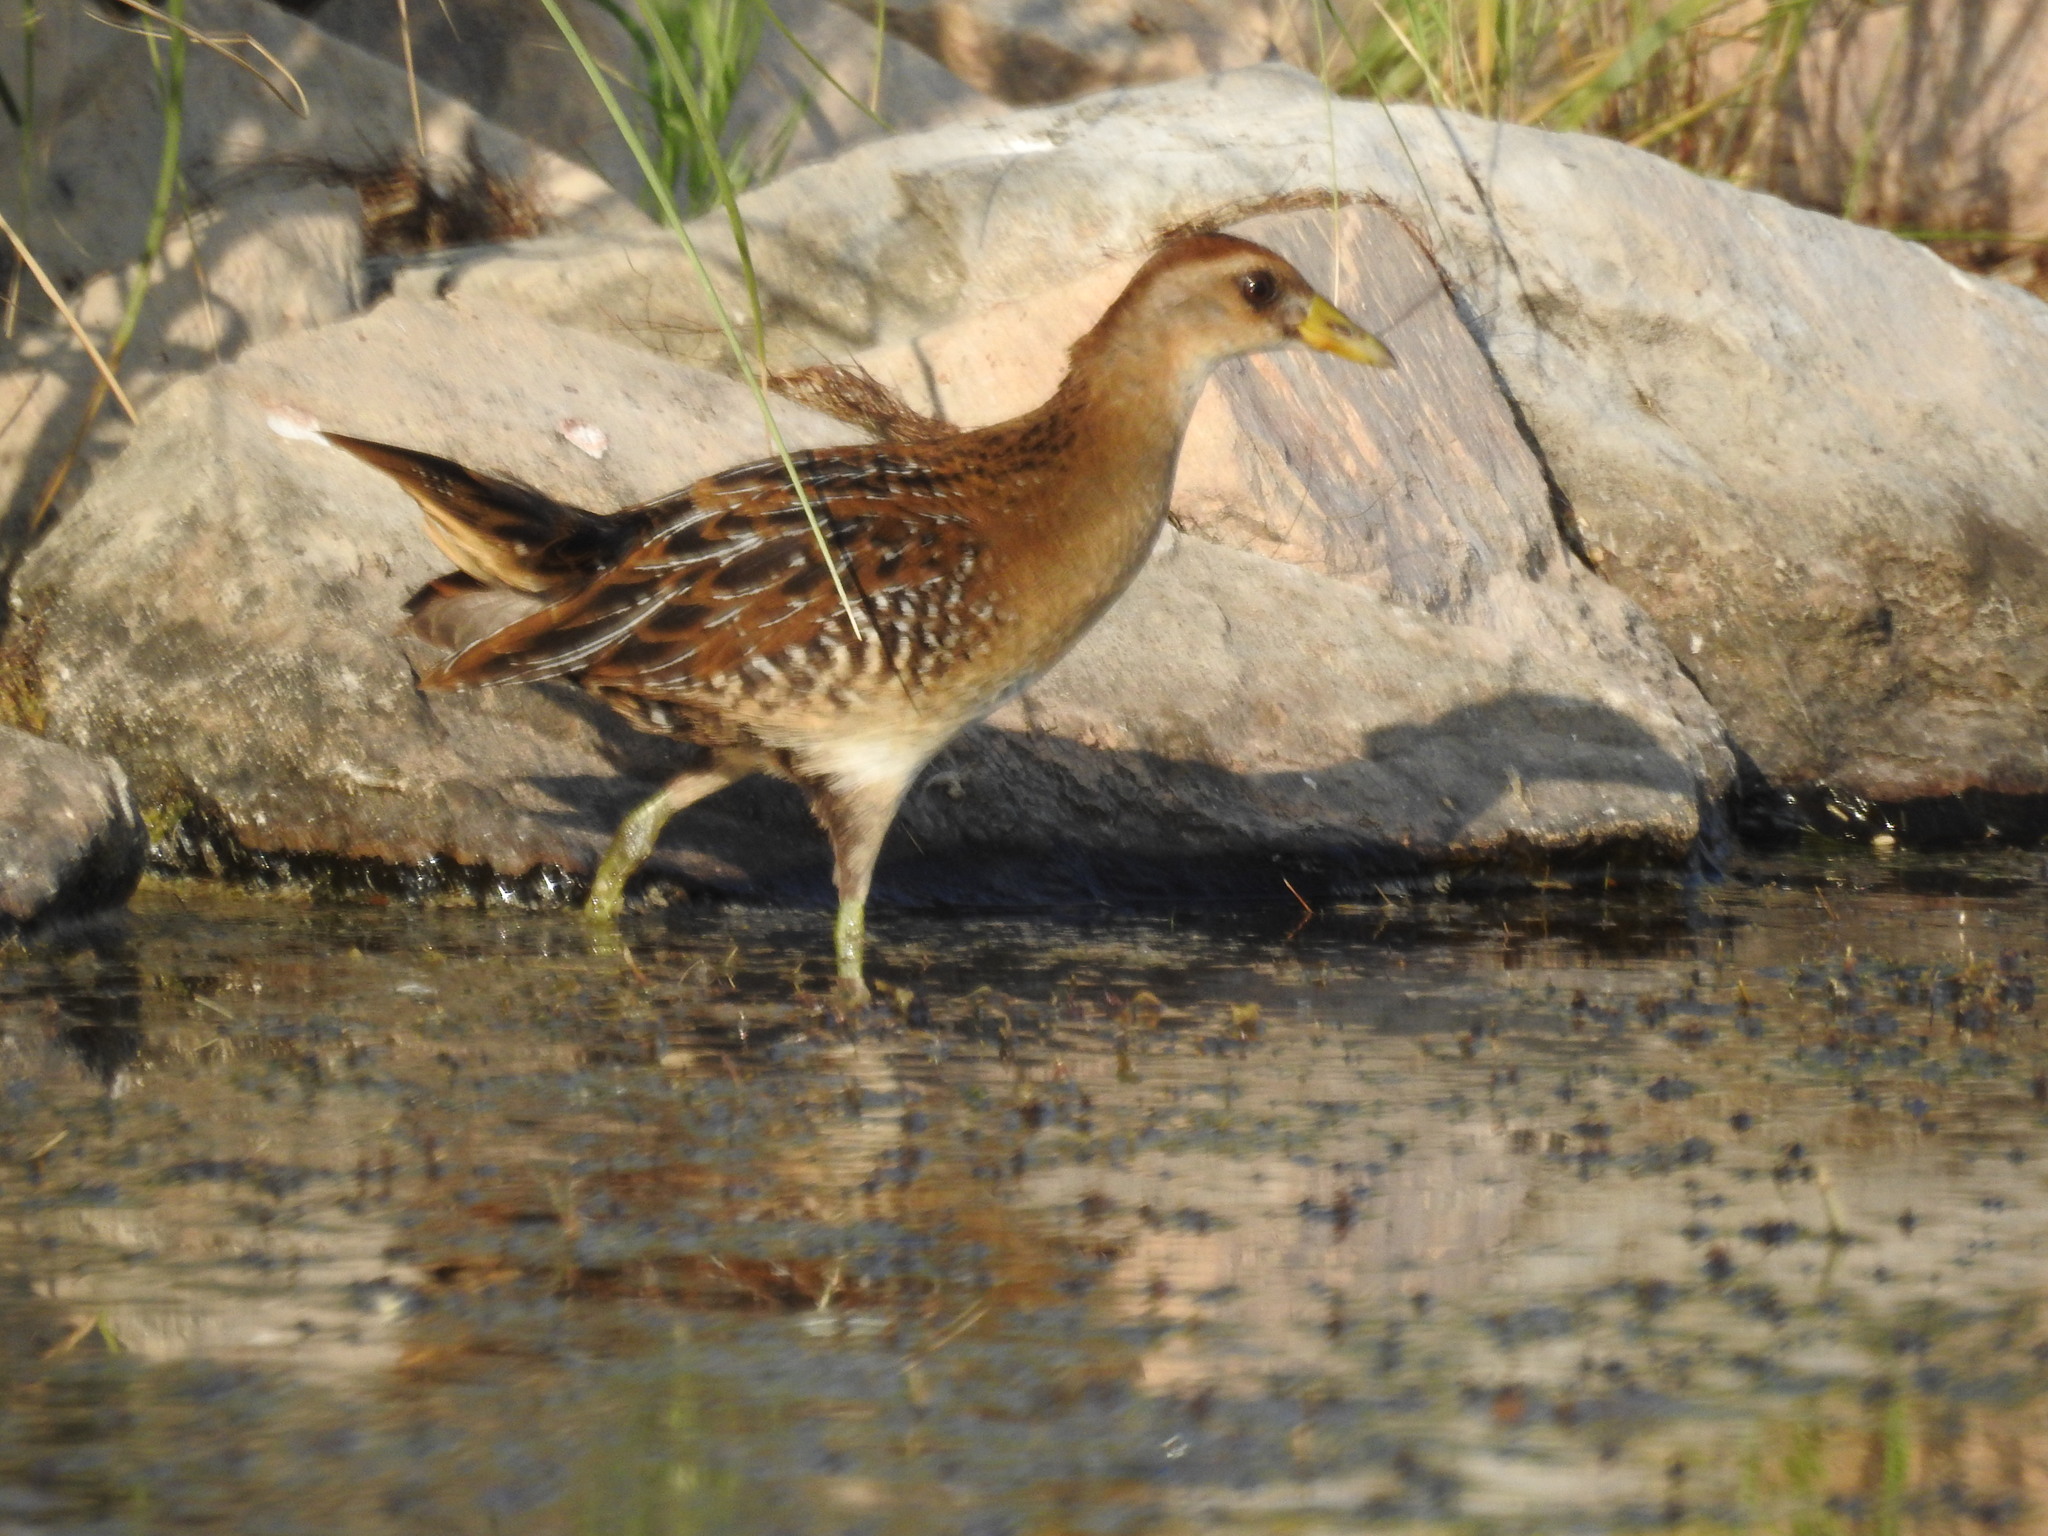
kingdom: Animalia
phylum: Chordata
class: Aves
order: Gruiformes
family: Rallidae
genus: Porzana
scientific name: Porzana carolina
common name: Sora
